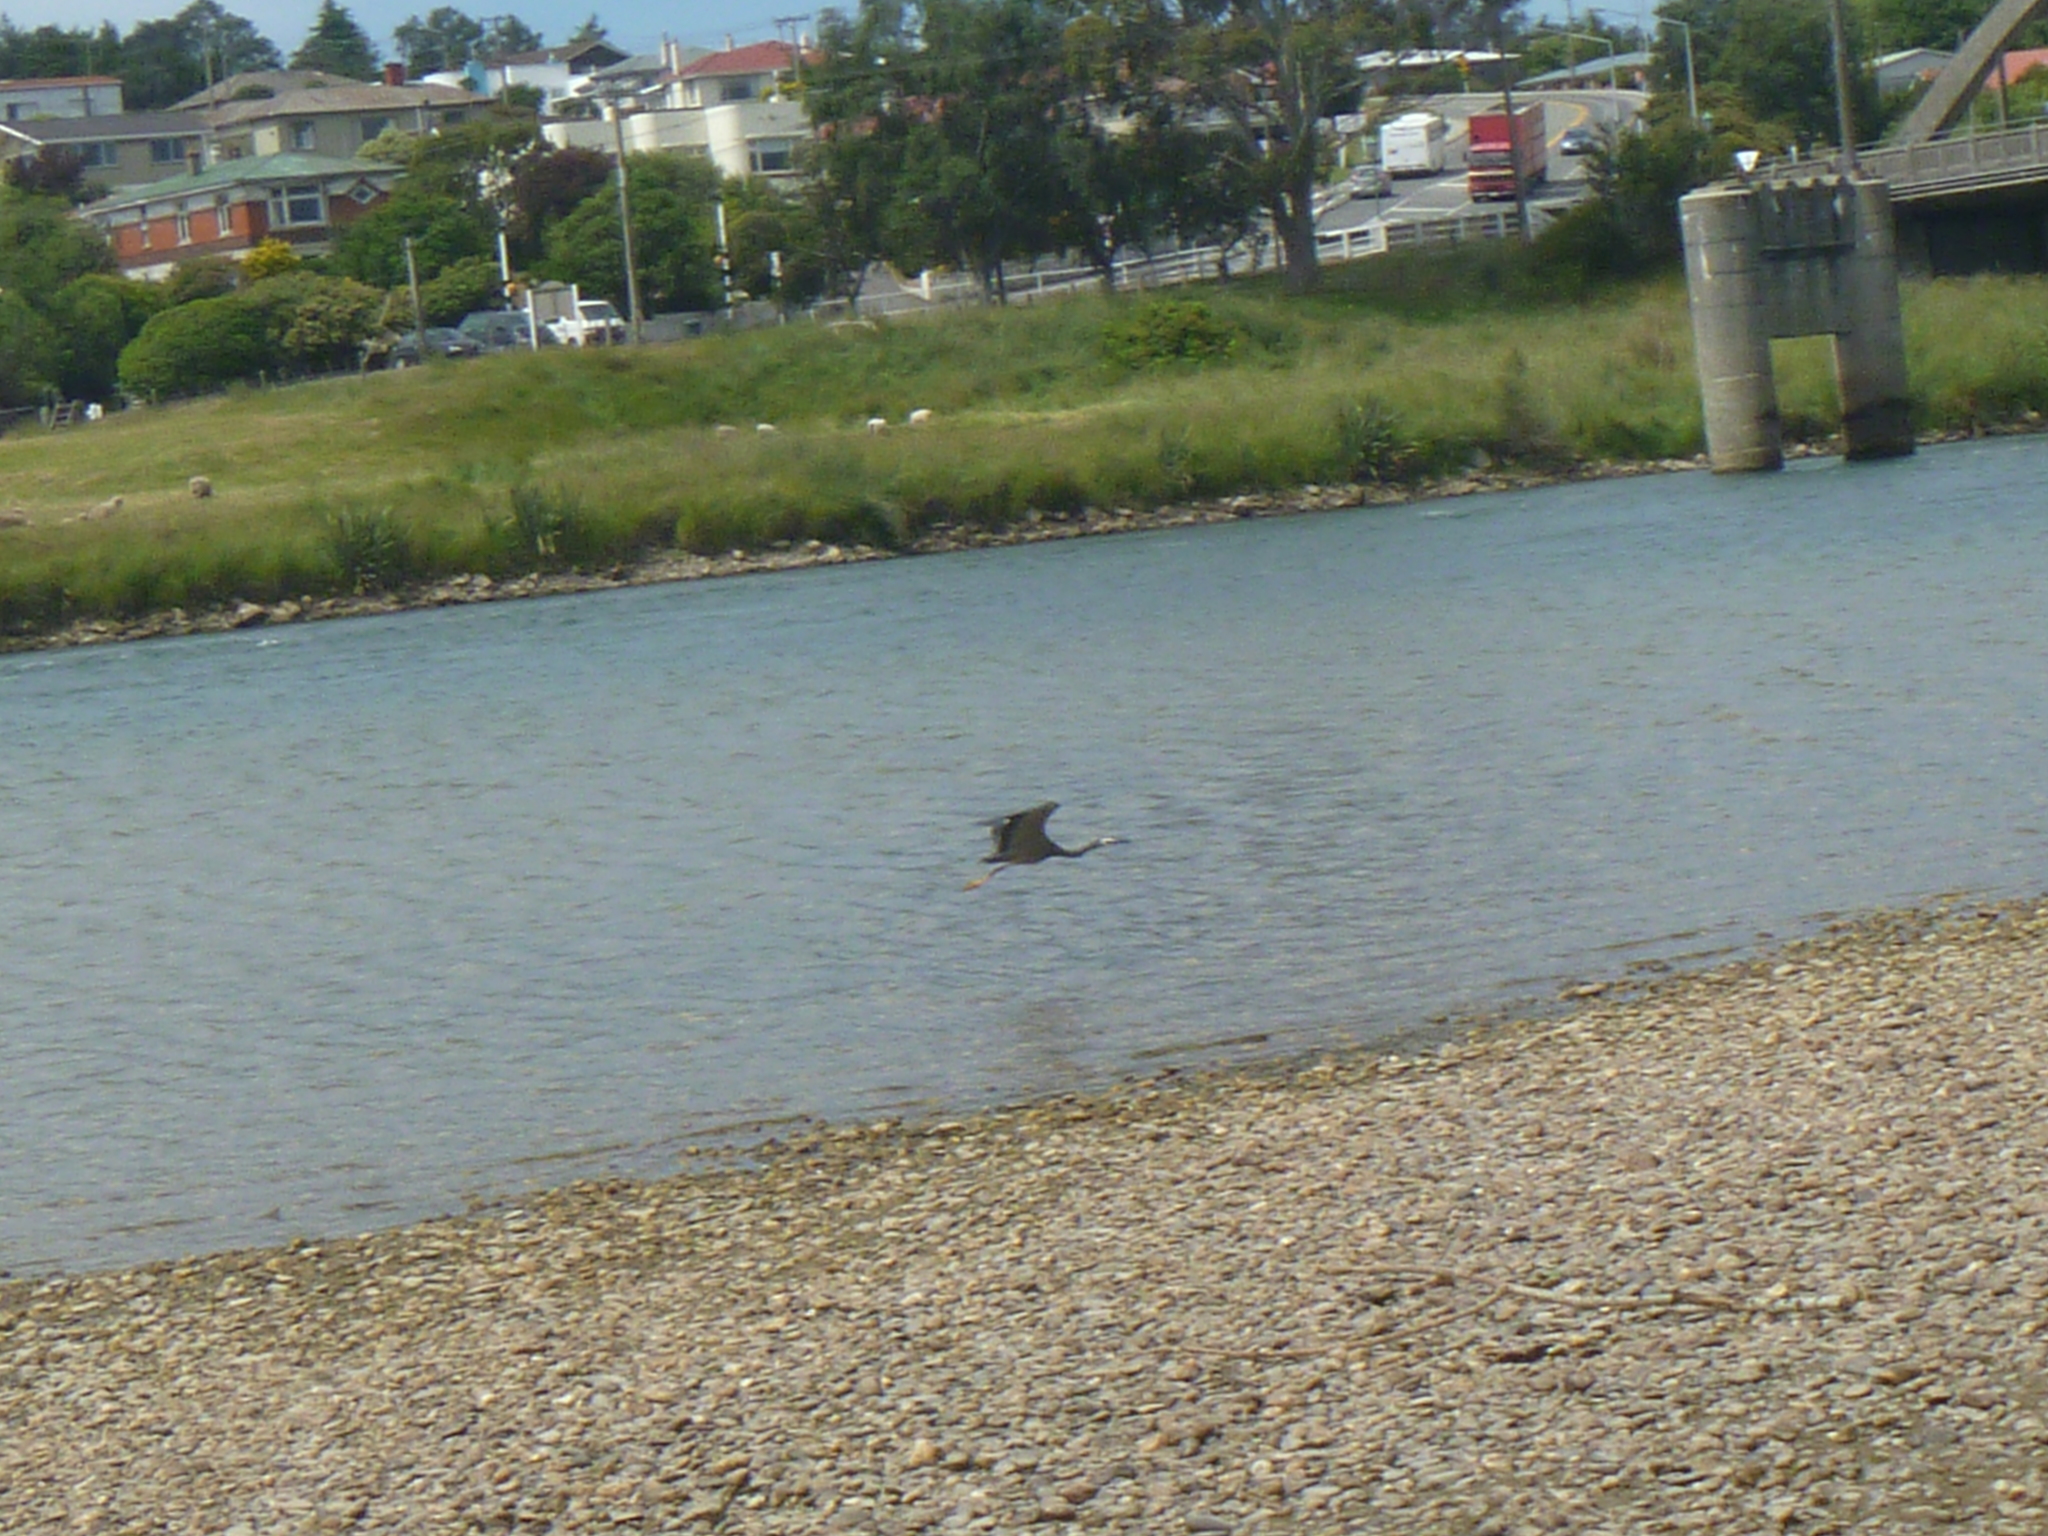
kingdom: Animalia
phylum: Chordata
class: Aves
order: Pelecaniformes
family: Ardeidae
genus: Egretta
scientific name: Egretta novaehollandiae
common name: White-faced heron
